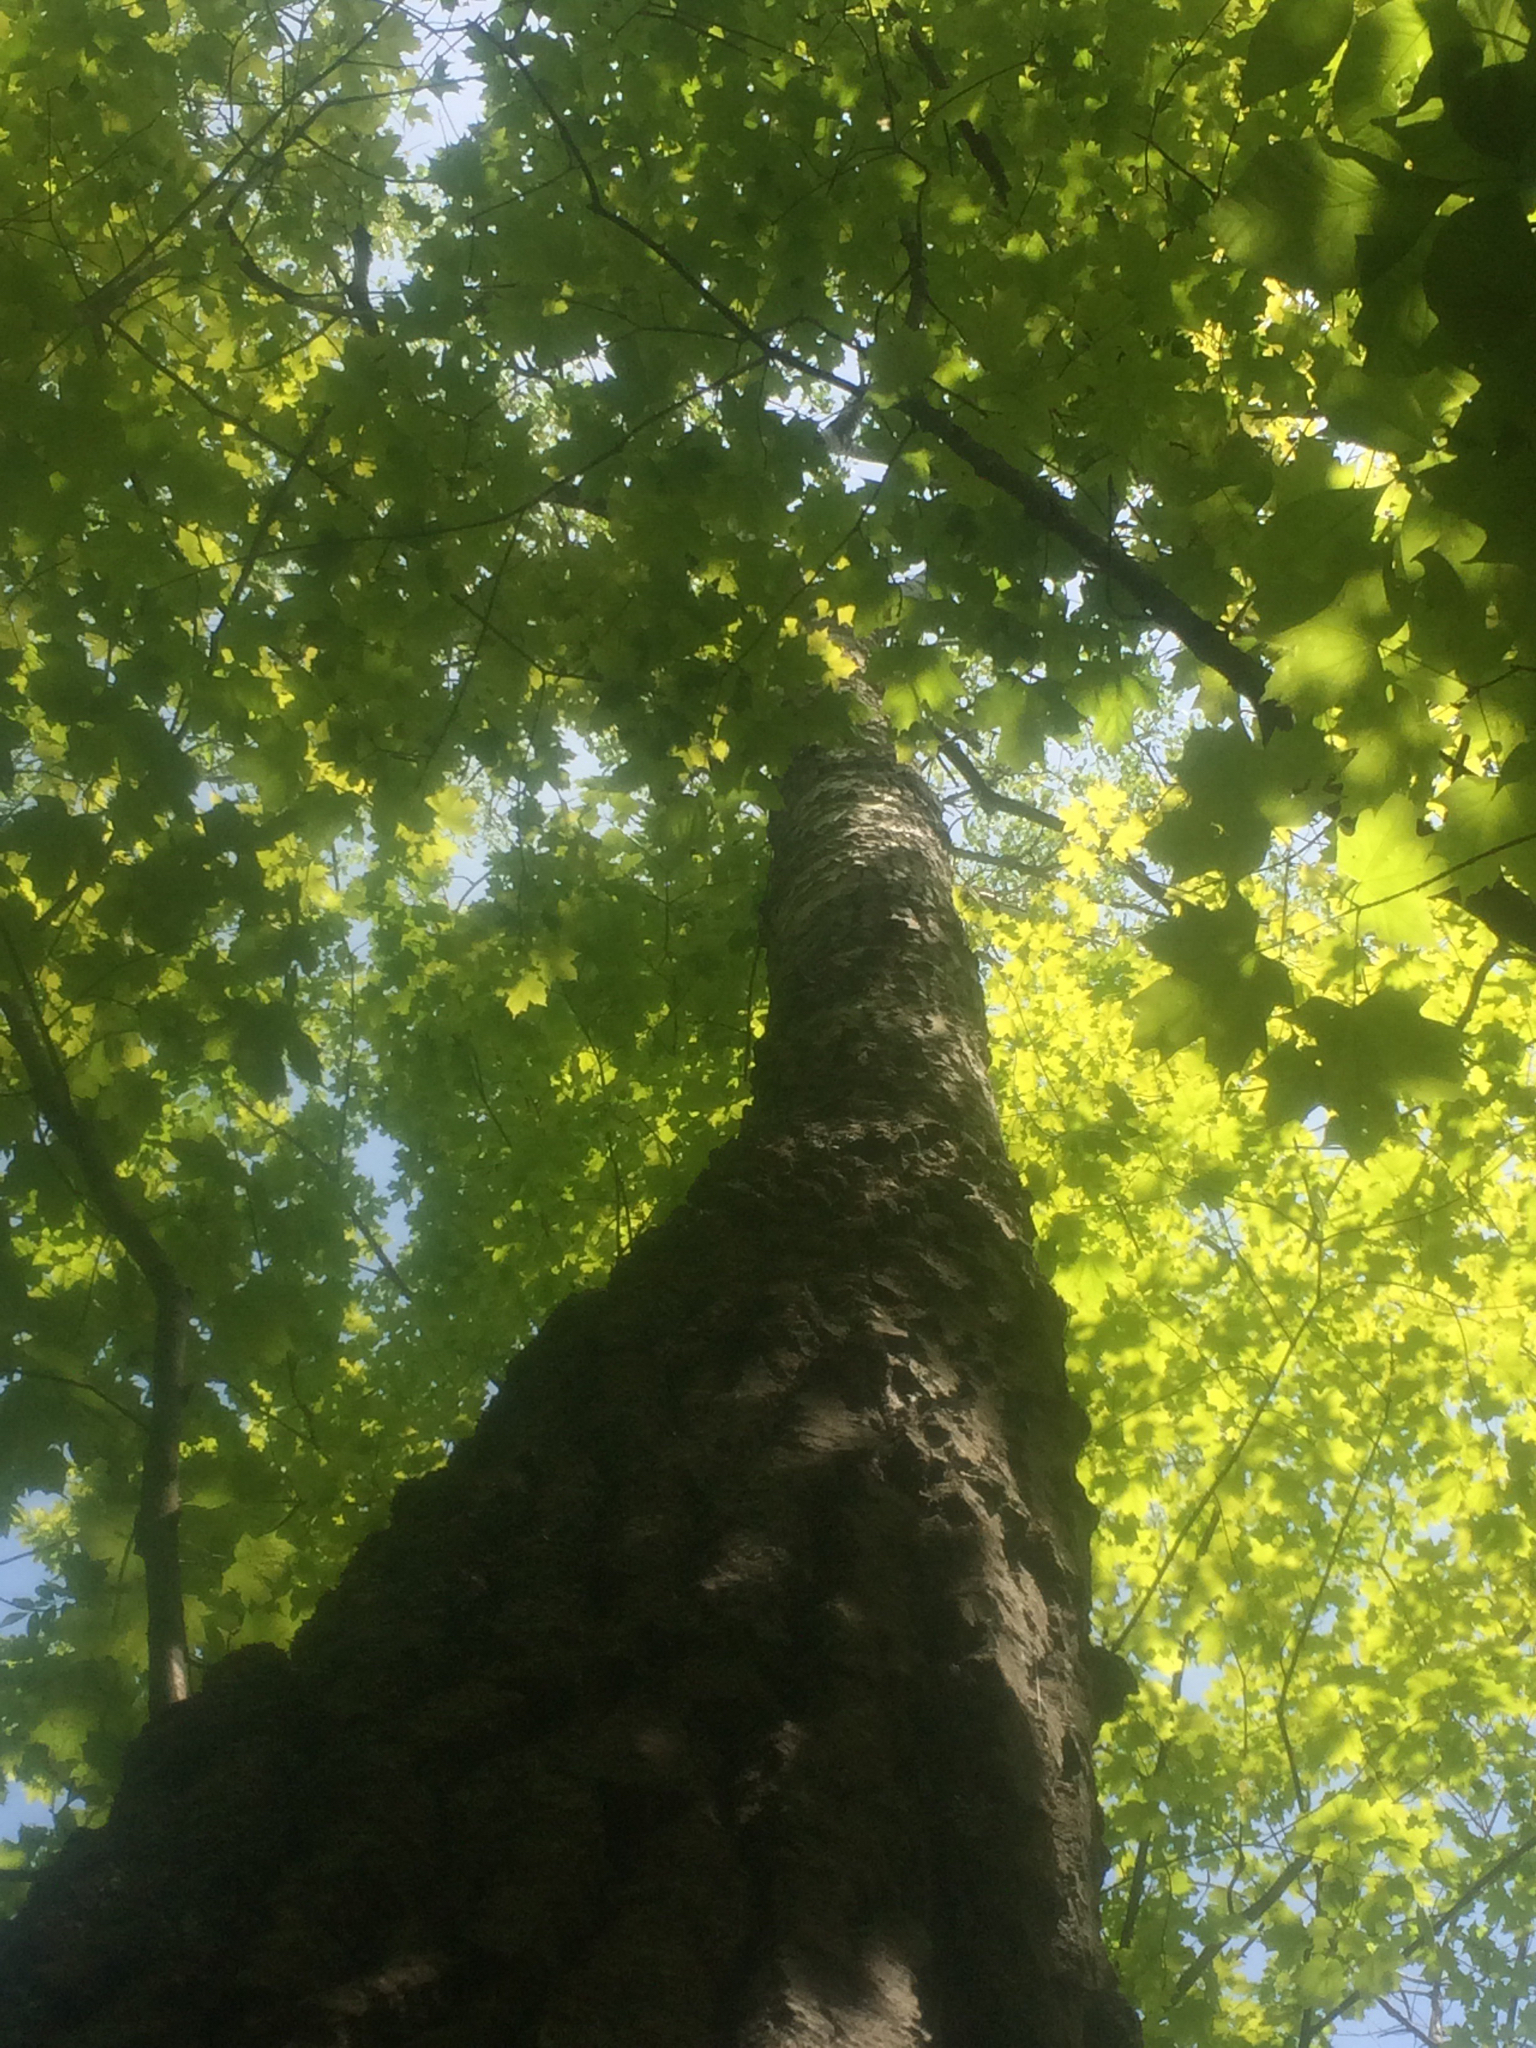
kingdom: Plantae
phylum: Tracheophyta
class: Magnoliopsida
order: Malpighiales
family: Salicaceae
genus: Populus
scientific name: Populus grandidentata
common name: Bigtooth aspen
